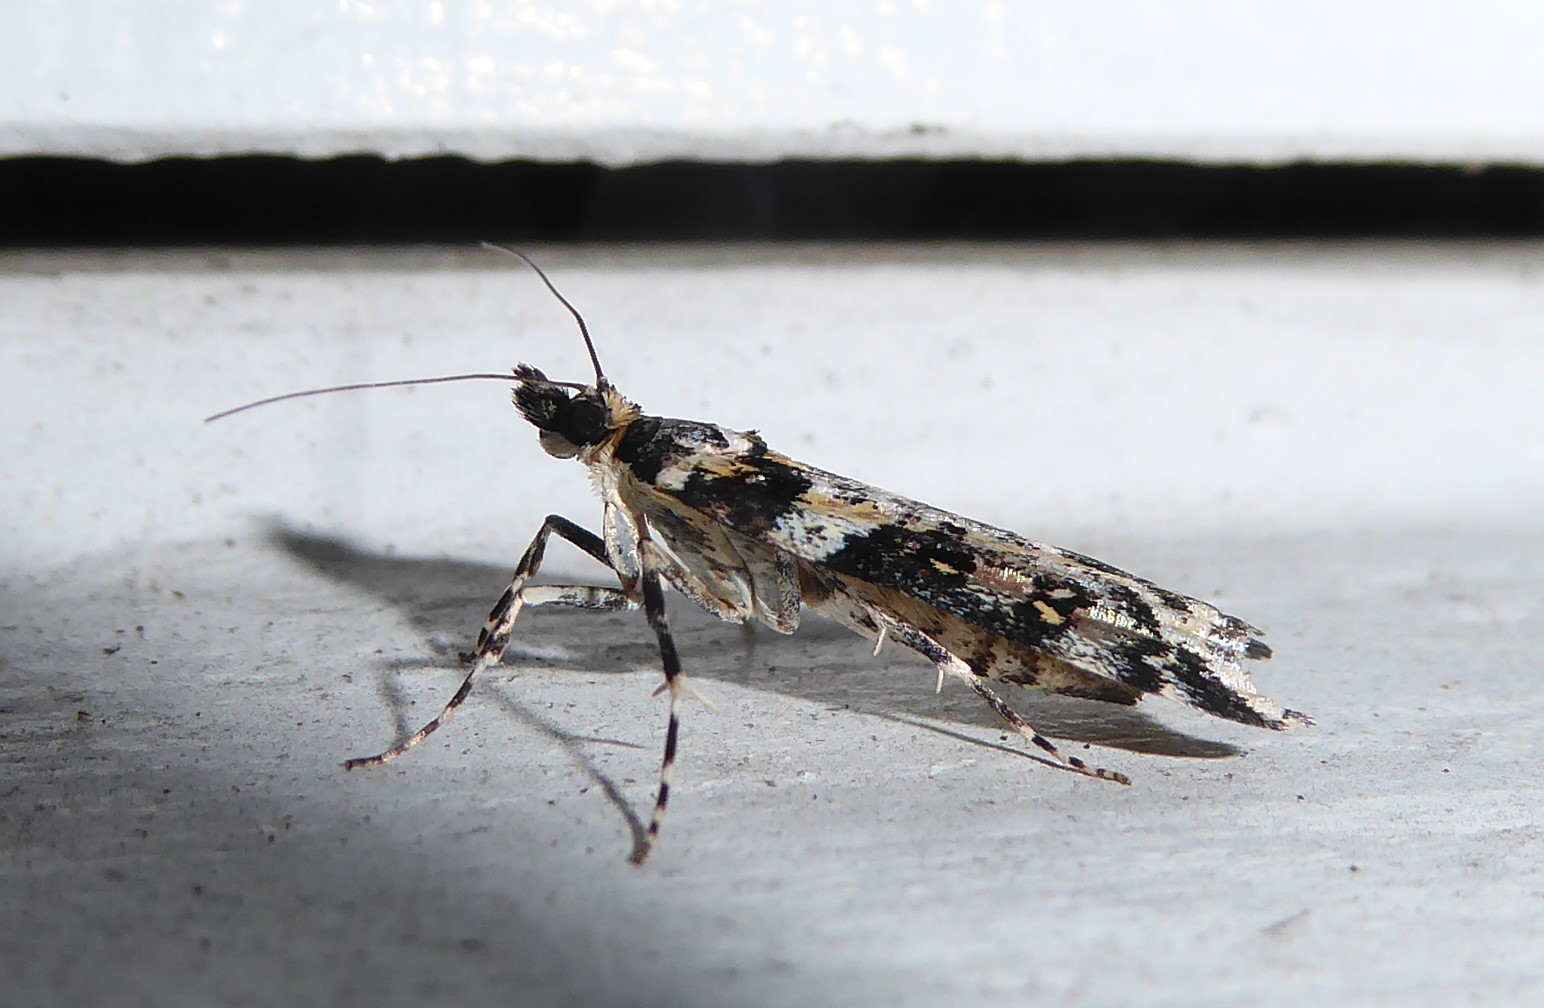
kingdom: Animalia
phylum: Arthropoda
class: Insecta
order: Lepidoptera
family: Crambidae
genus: Eudonia
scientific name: Eudonia diphtheralis
